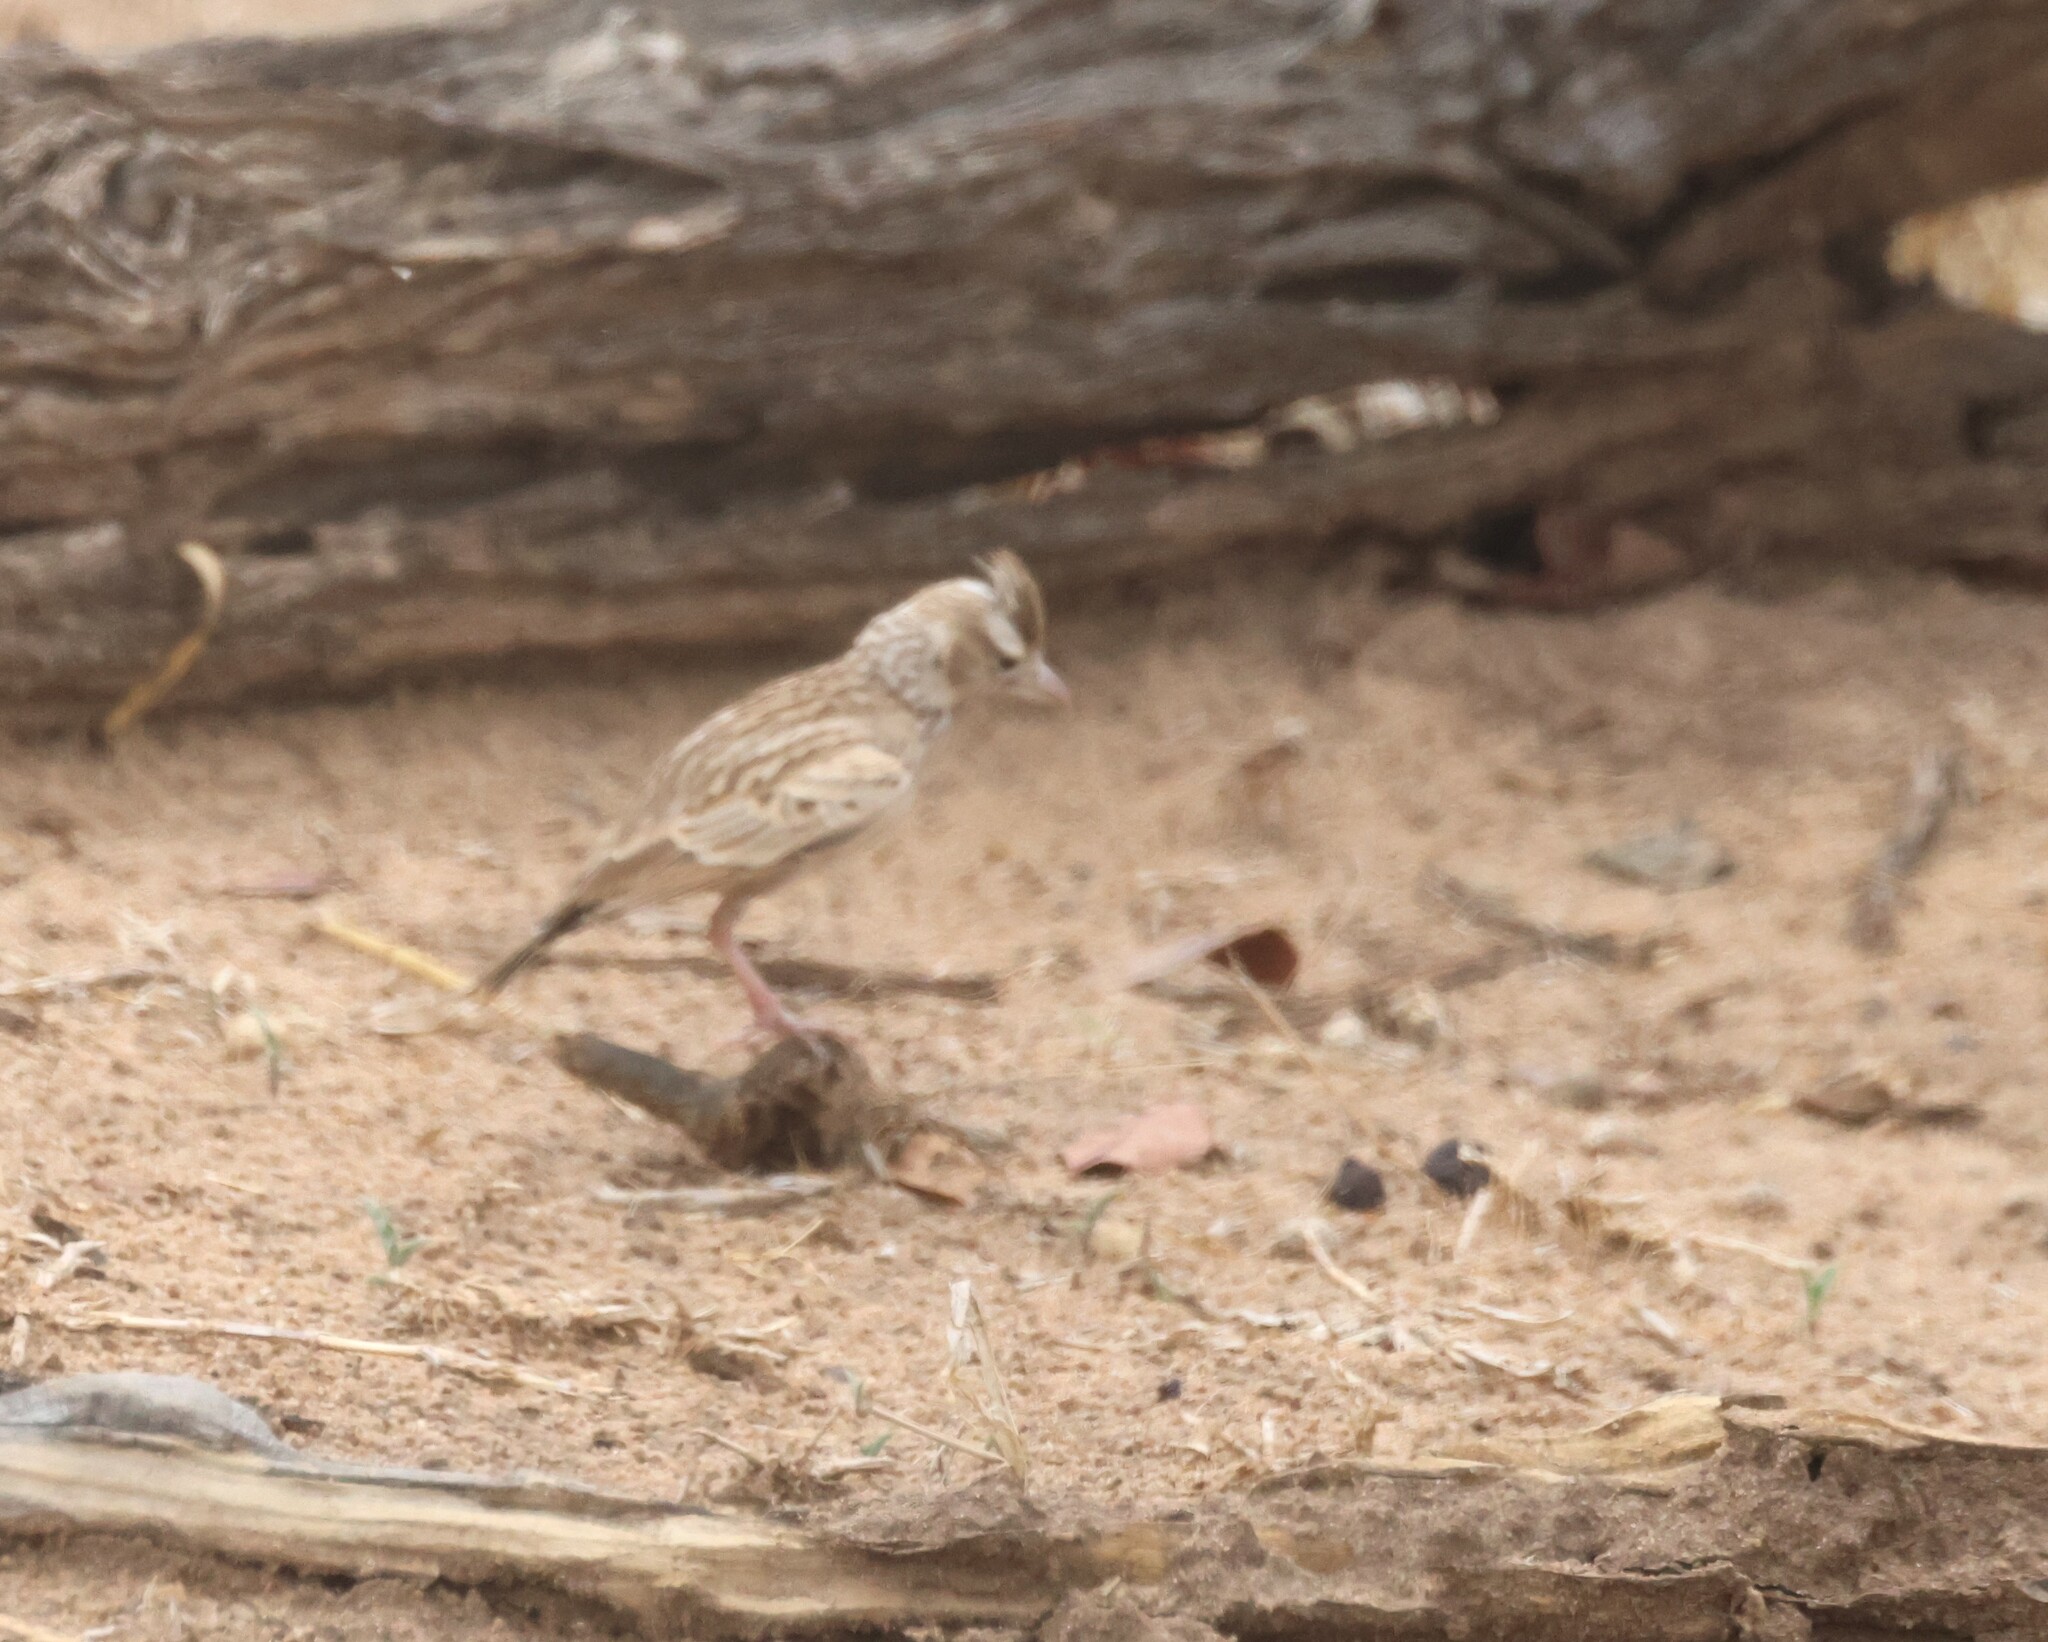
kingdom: Animalia
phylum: Chordata
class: Aves
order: Passeriformes
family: Alaudidae
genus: Spizocorys
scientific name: Spizocorys starki
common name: Stark's lark
